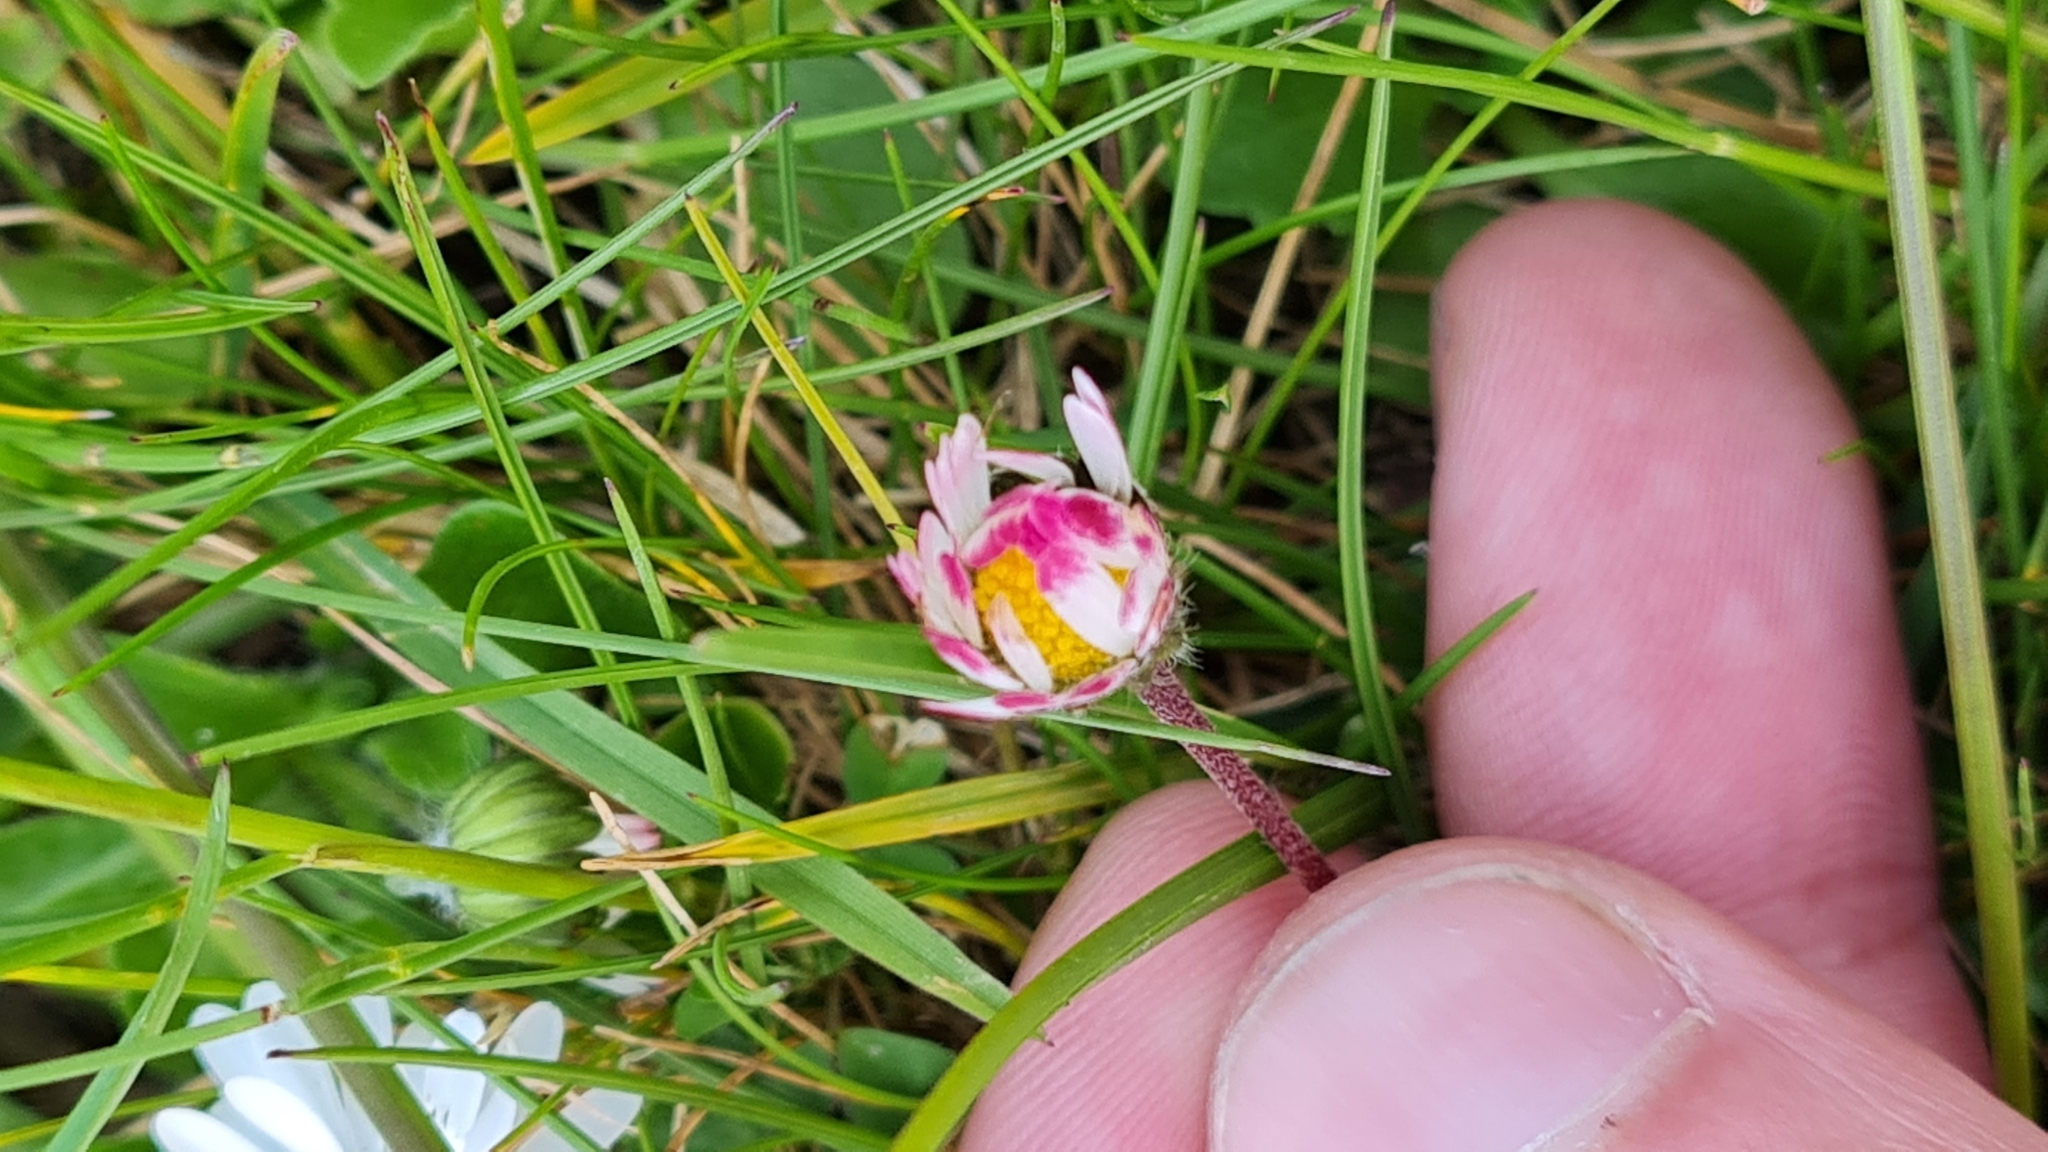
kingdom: Plantae
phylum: Tracheophyta
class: Magnoliopsida
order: Asterales
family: Asteraceae
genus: Bellis
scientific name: Bellis perennis
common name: Lawndaisy
